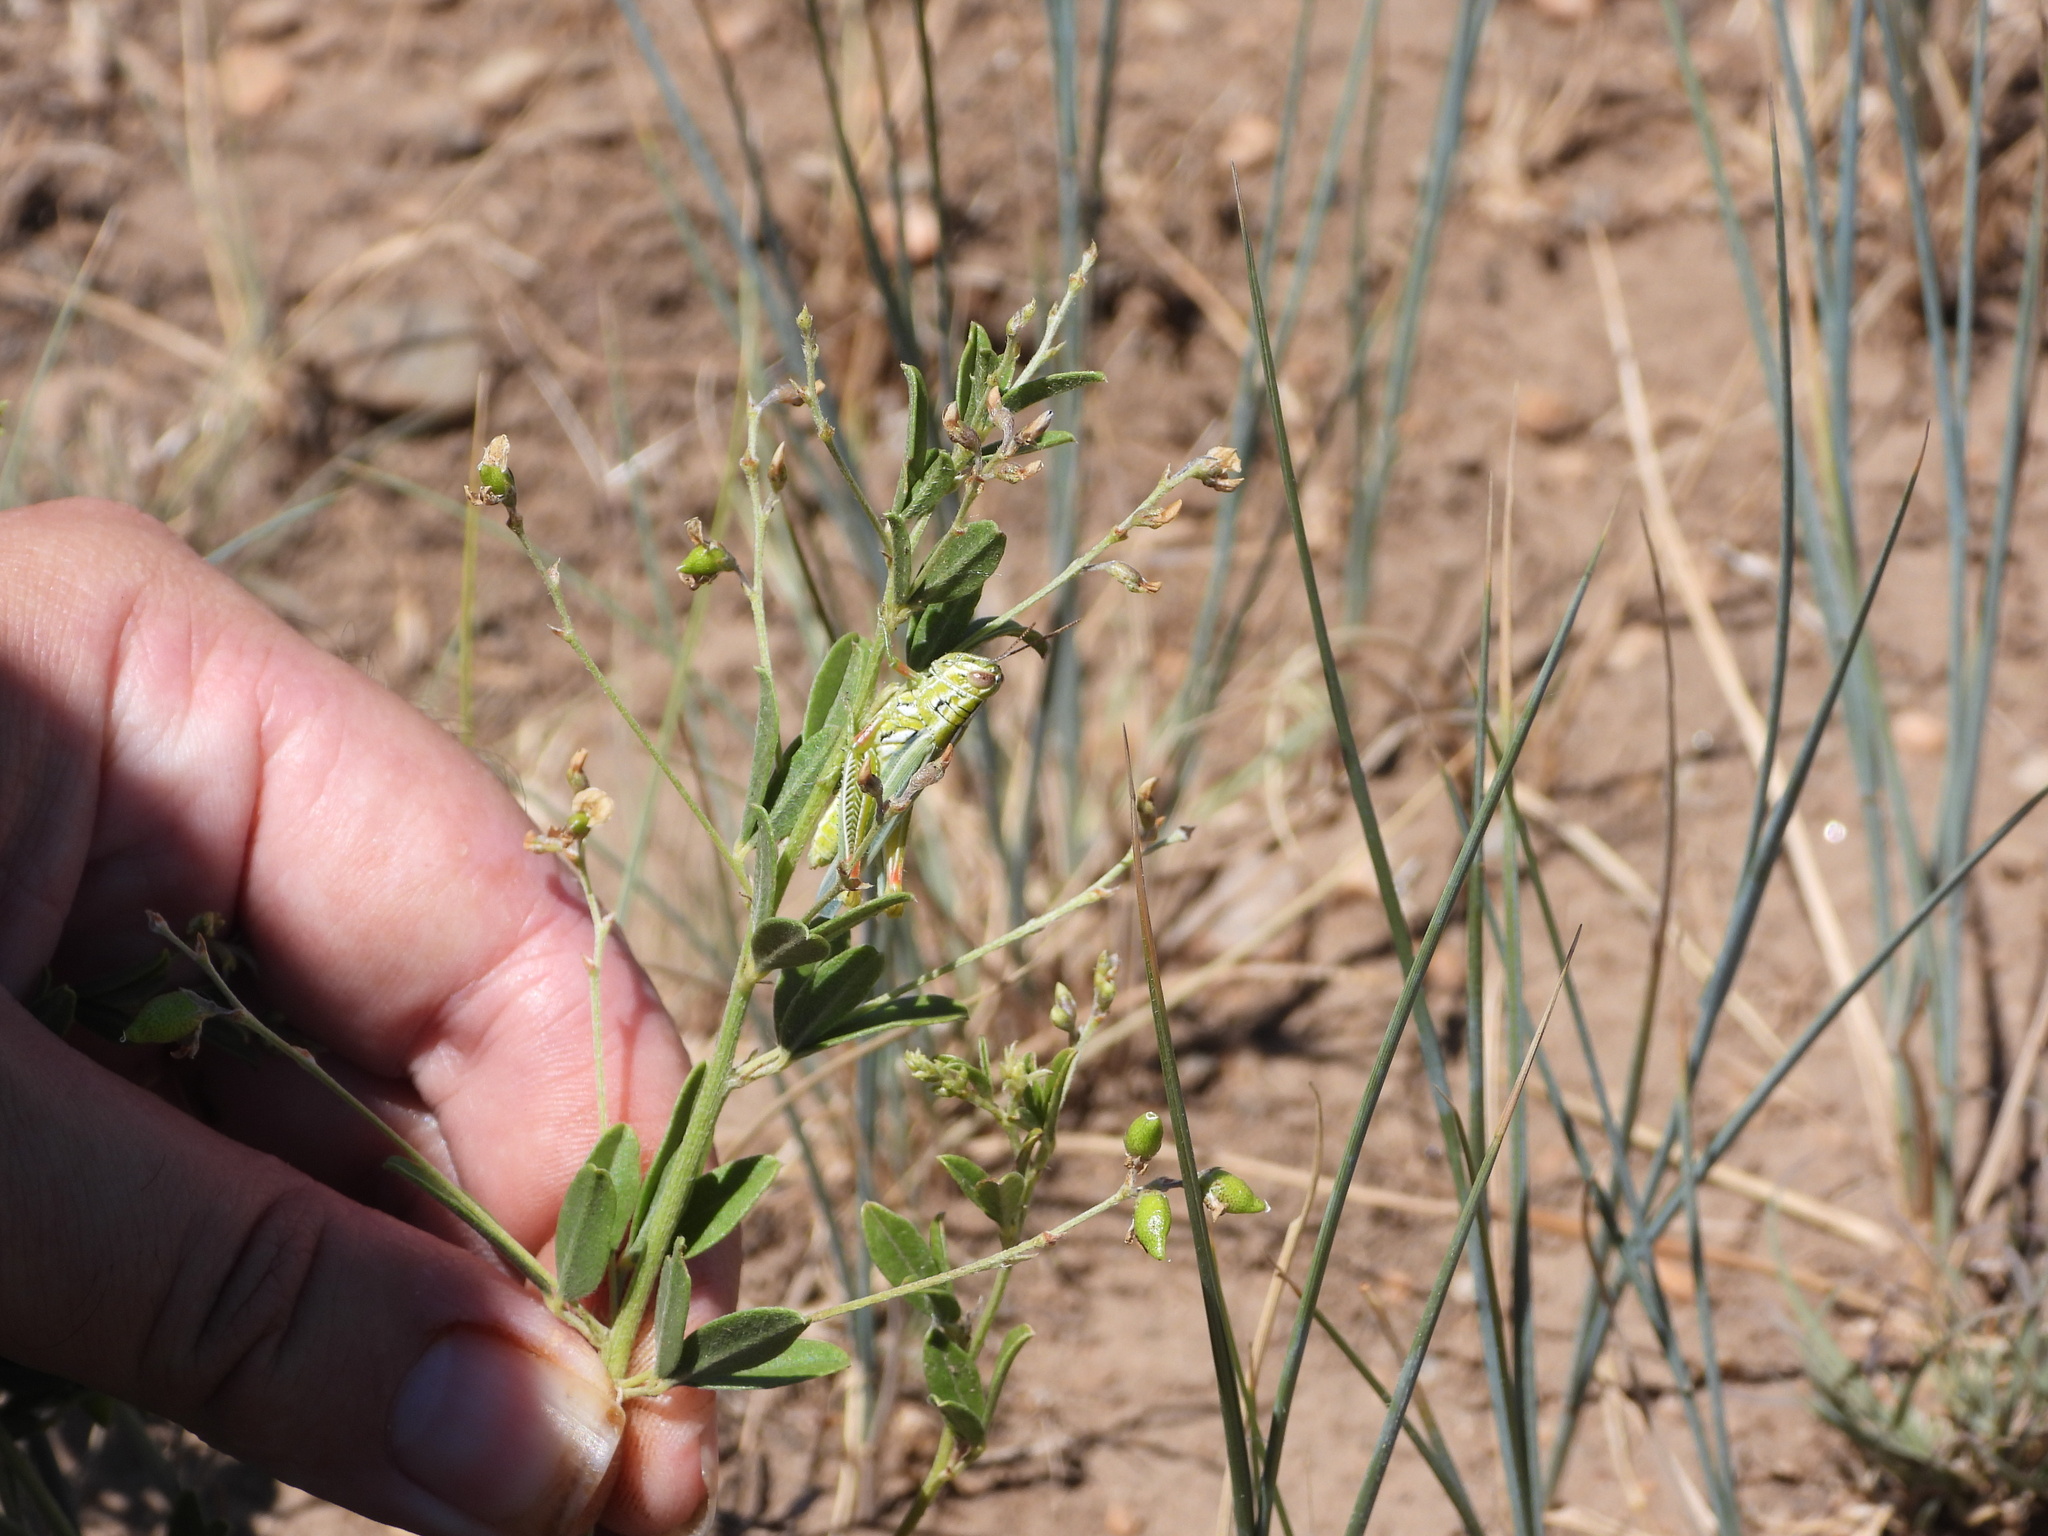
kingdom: Animalia
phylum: Arthropoda
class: Insecta
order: Orthoptera
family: Acrididae
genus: Hesperotettix
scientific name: Hesperotettix viridis
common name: Meadow purple-striped grasshopper
